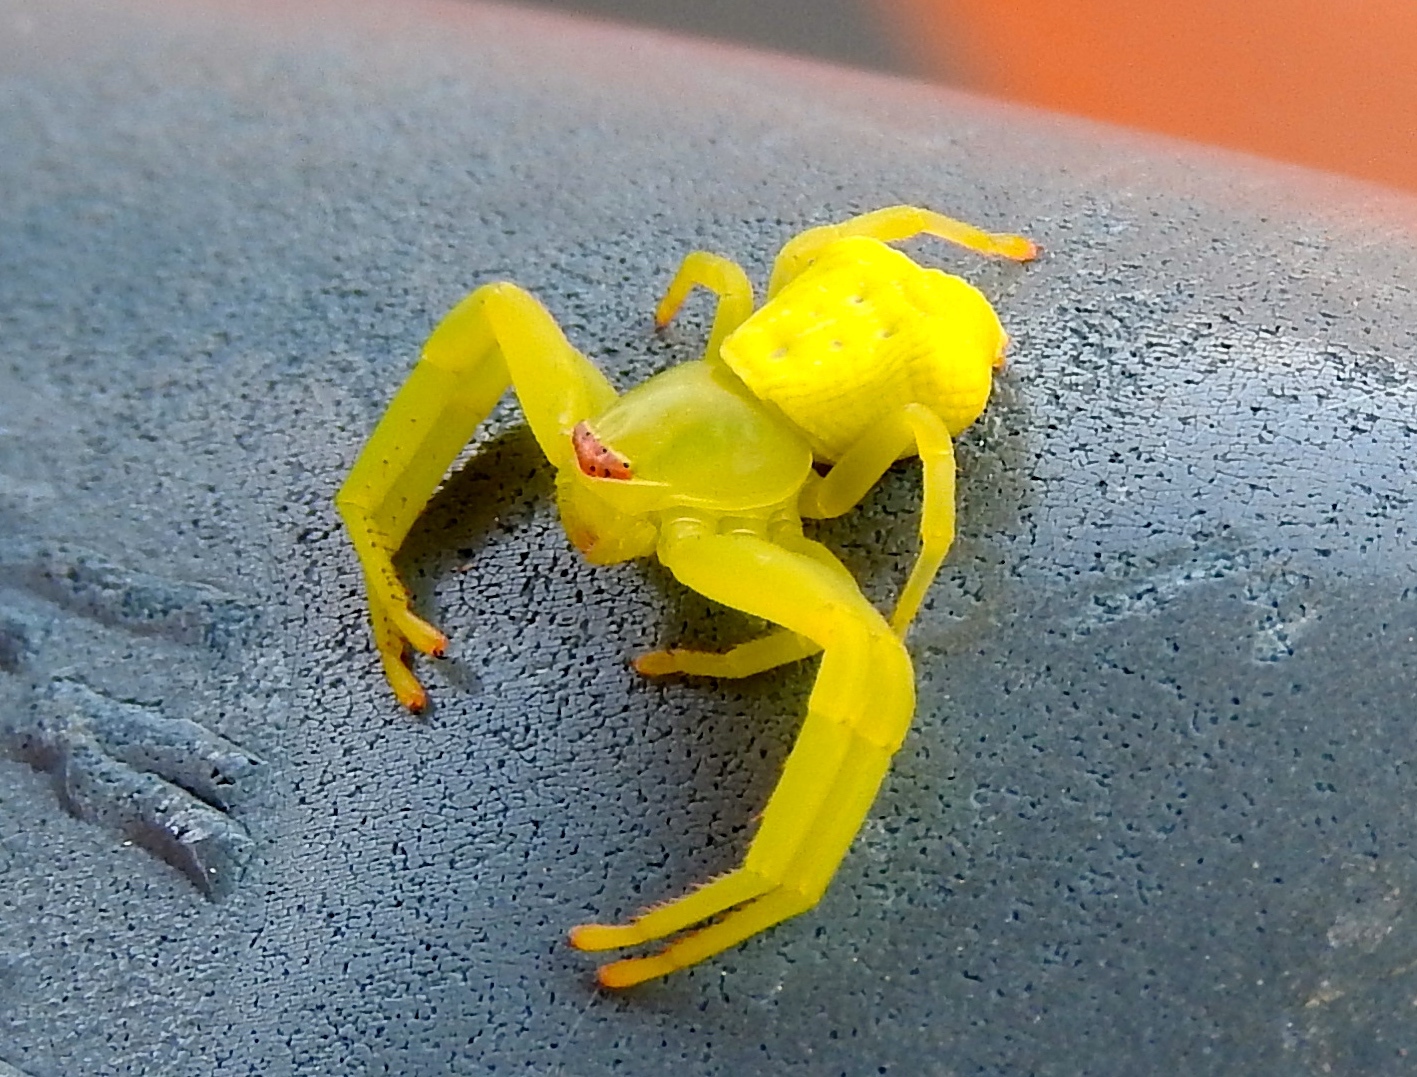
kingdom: Animalia
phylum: Arthropoda
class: Arachnida
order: Araneae
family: Thomisidae
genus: Misumenoides
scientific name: Misumenoides
